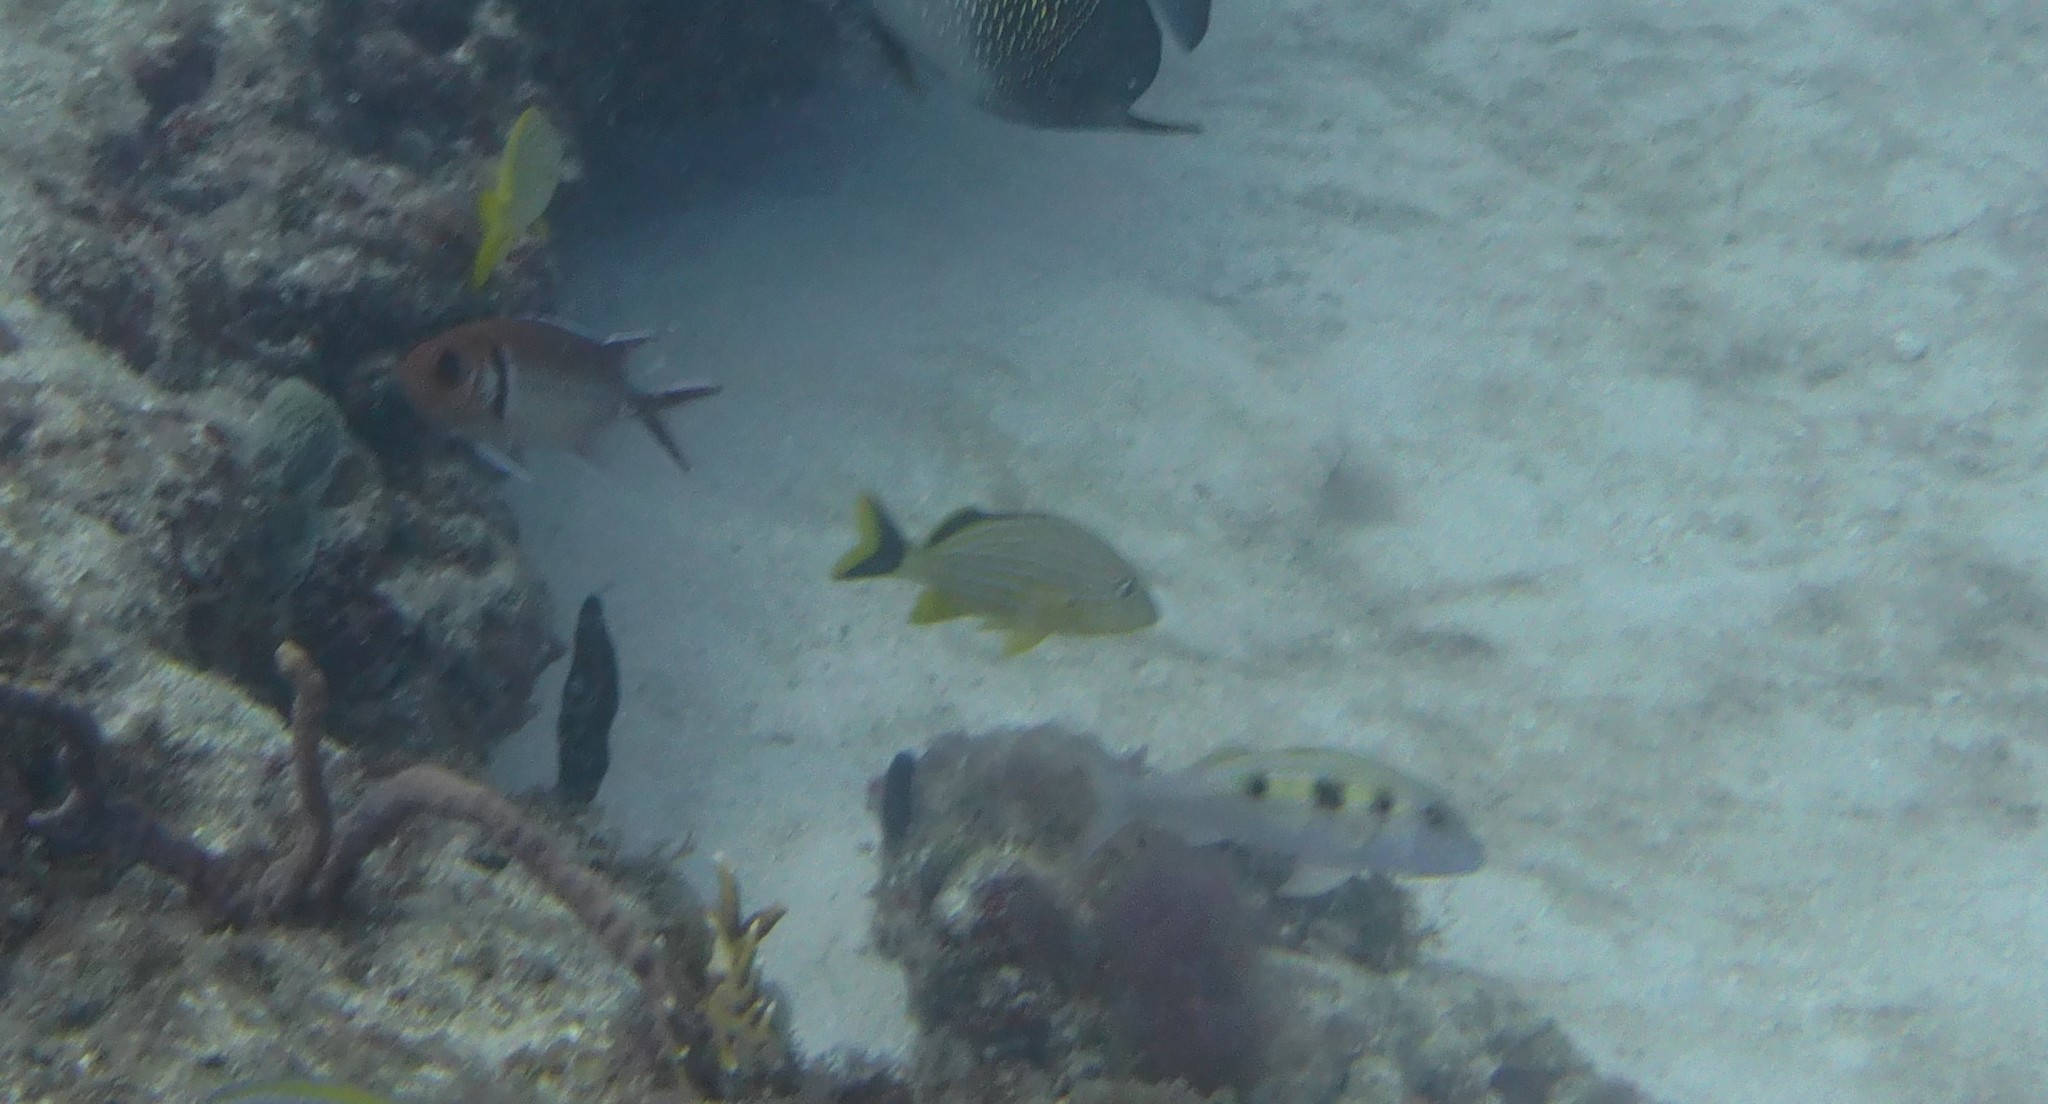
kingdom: Animalia
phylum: Chordata
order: Perciformes
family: Haemulidae
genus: Haemulon
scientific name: Haemulon sciurus
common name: Bluestriped grunt
